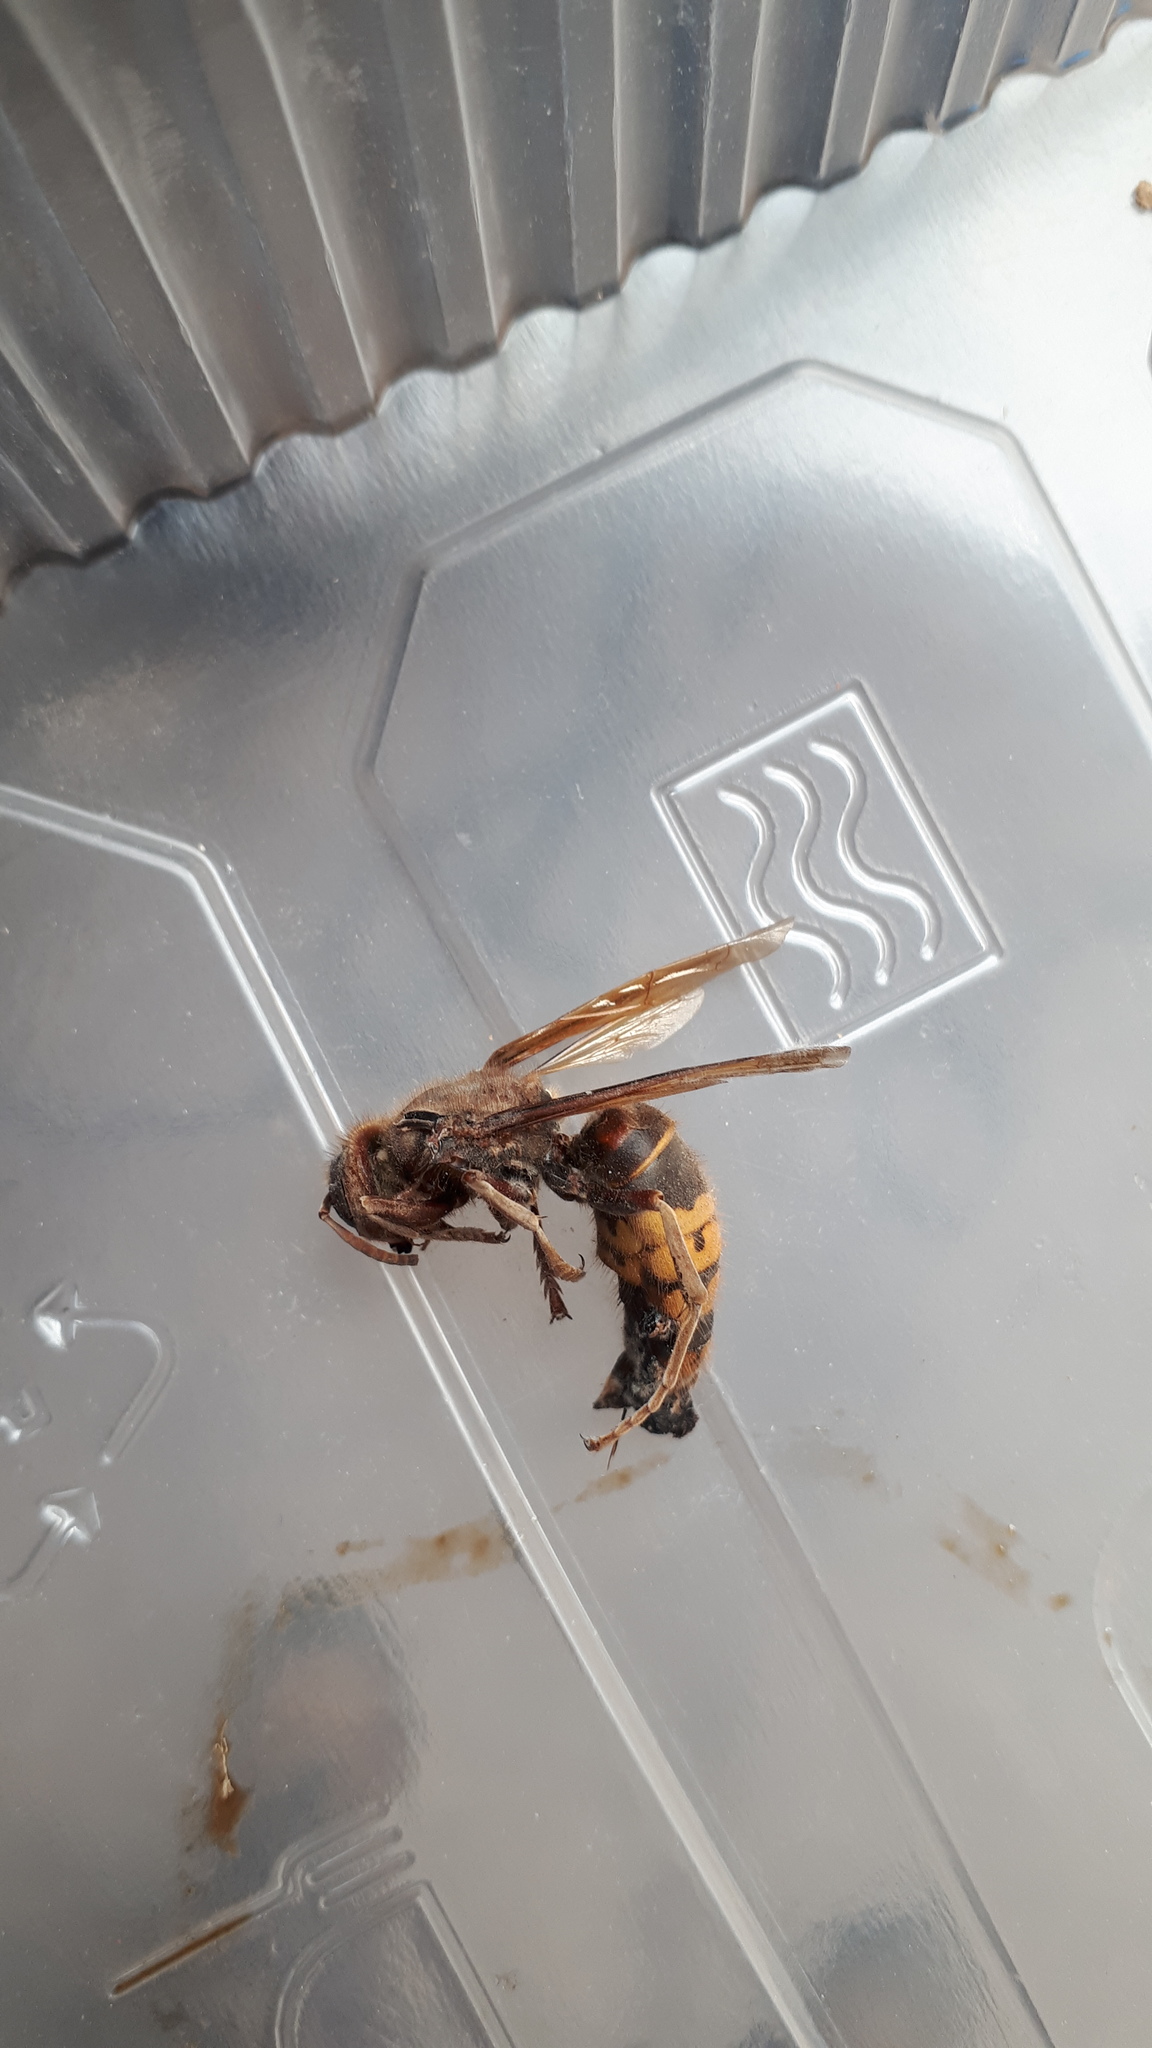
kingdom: Animalia
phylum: Arthropoda
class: Insecta
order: Hymenoptera
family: Vespidae
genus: Vespa
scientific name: Vespa crabro
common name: Hornet
